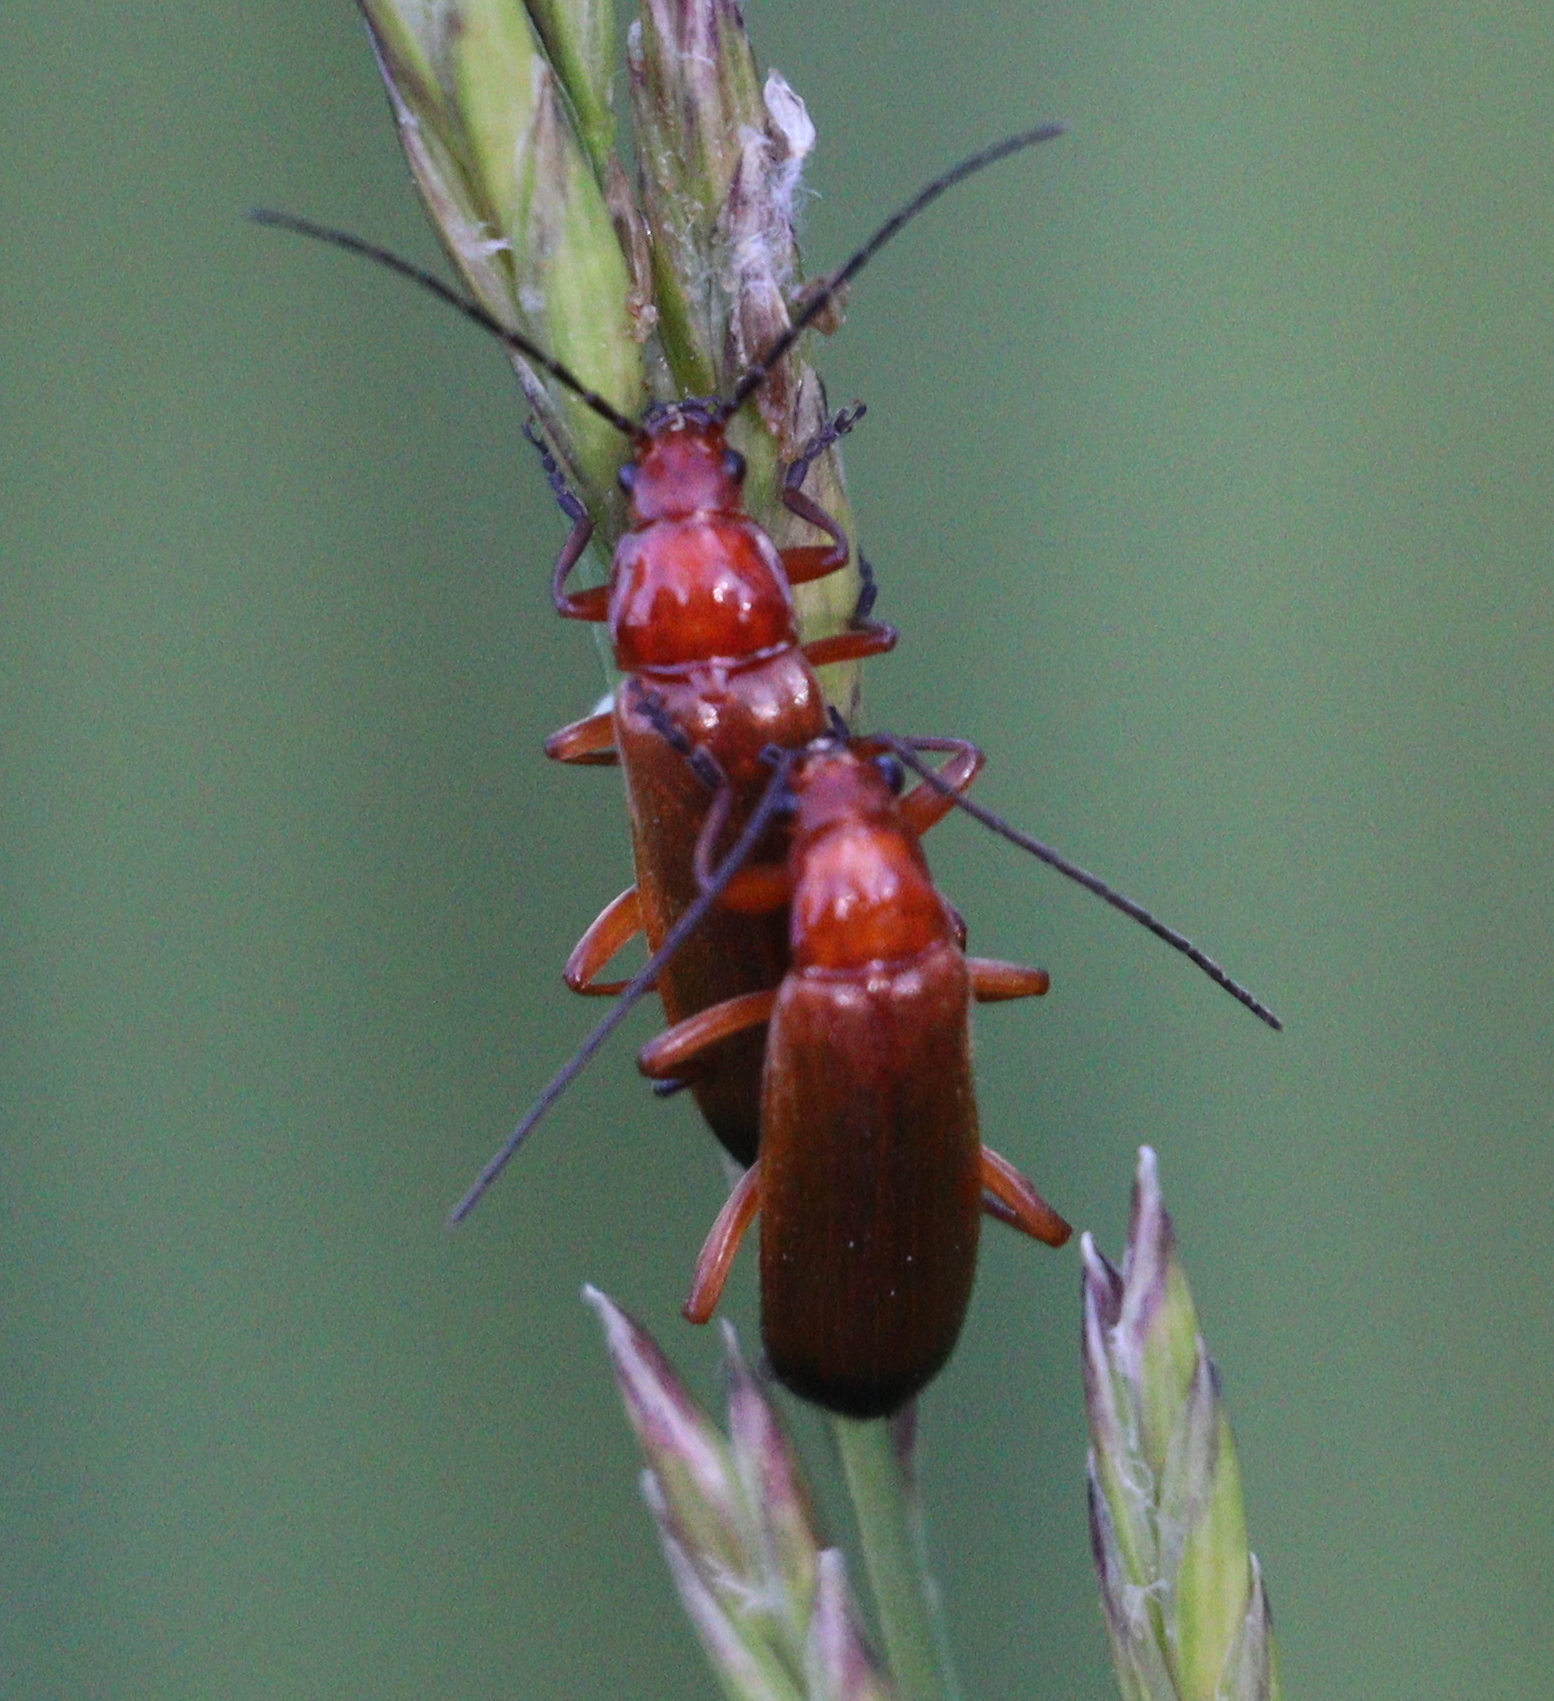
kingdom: Animalia
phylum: Arthropoda
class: Insecta
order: Coleoptera
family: Cantharidae
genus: Rhagonycha
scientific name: Rhagonycha fulva
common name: Common red soldier beetle
